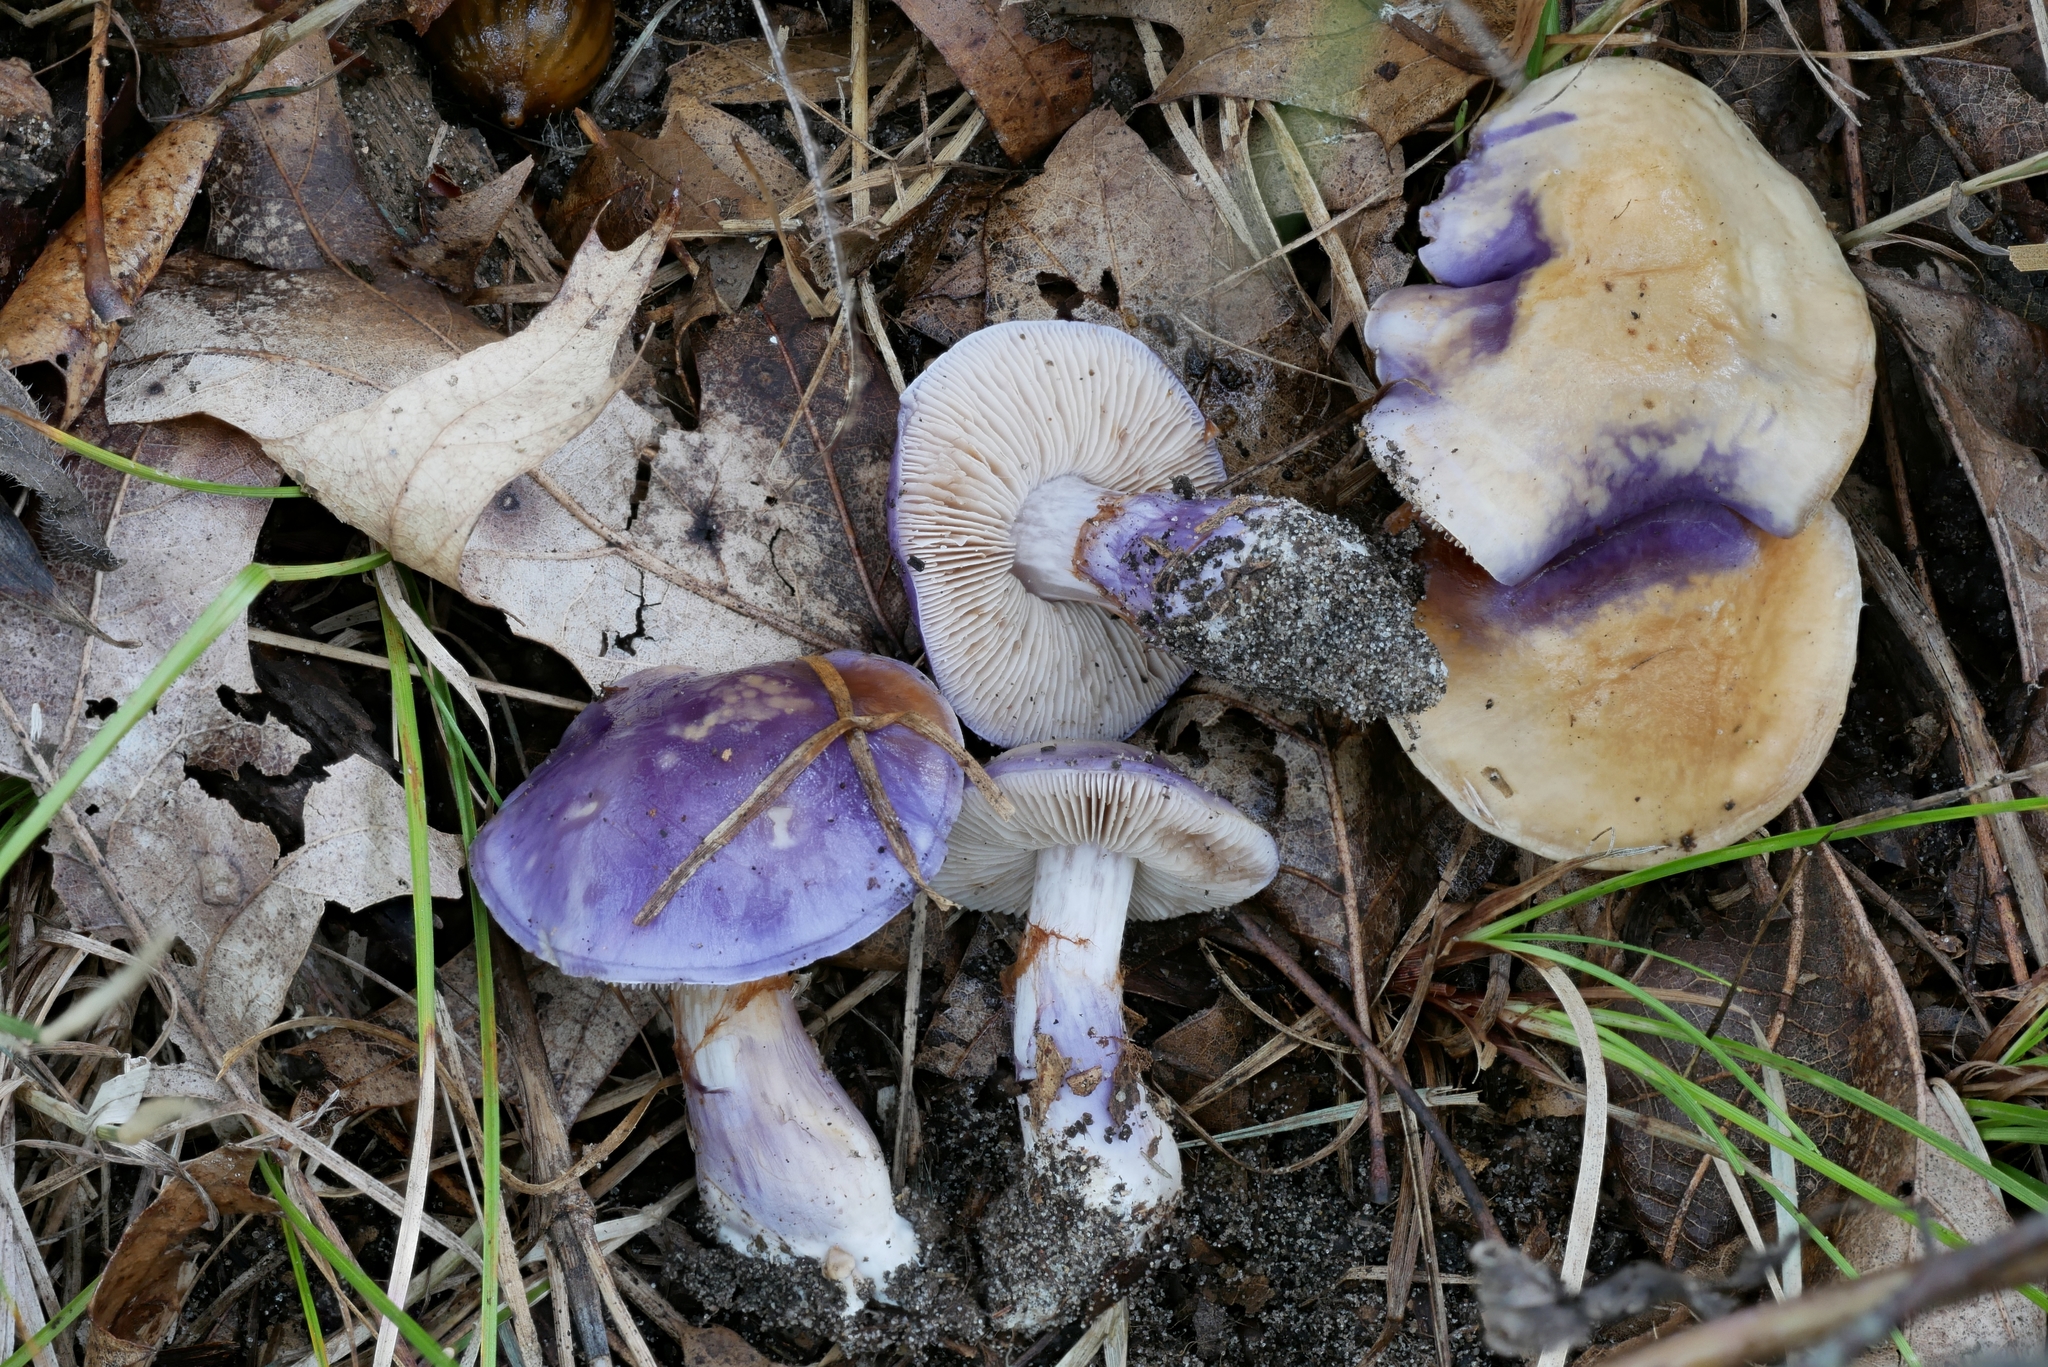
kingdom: Fungi
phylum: Basidiomycota
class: Agaricomycetes
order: Agaricales
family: Cortinariaceae
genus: Cortinarius
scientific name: Cortinarius iodeoides
